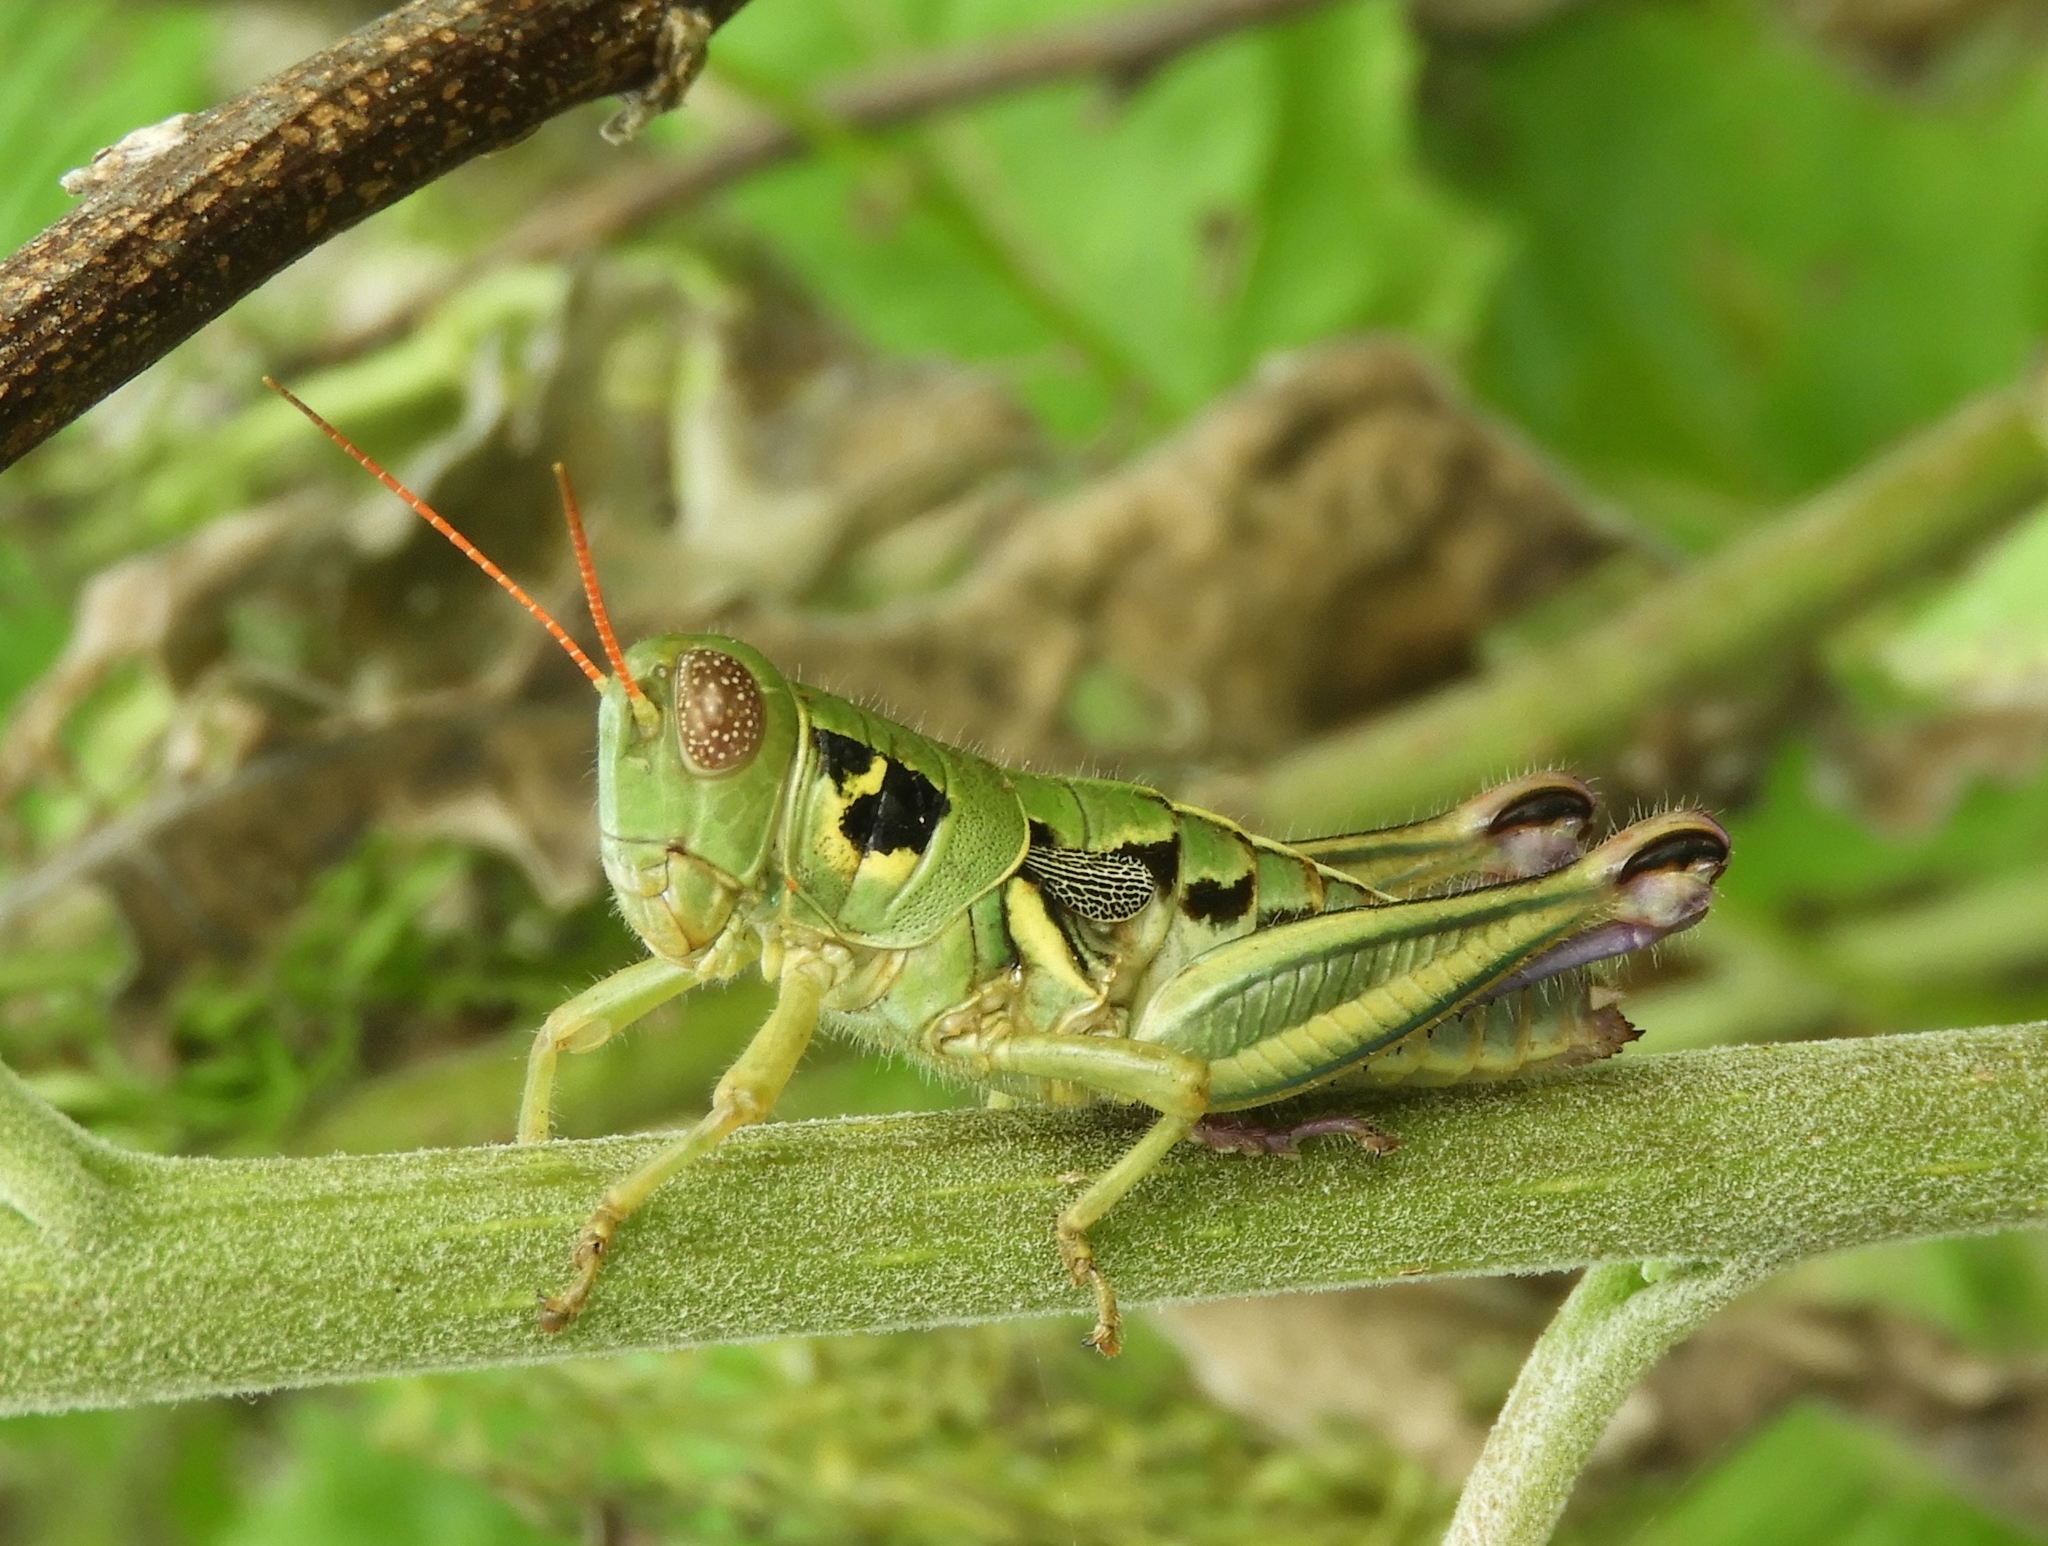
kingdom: Animalia
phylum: Arthropoda
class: Insecta
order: Orthoptera
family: Acrididae
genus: Barytettix
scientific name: Barytettix
